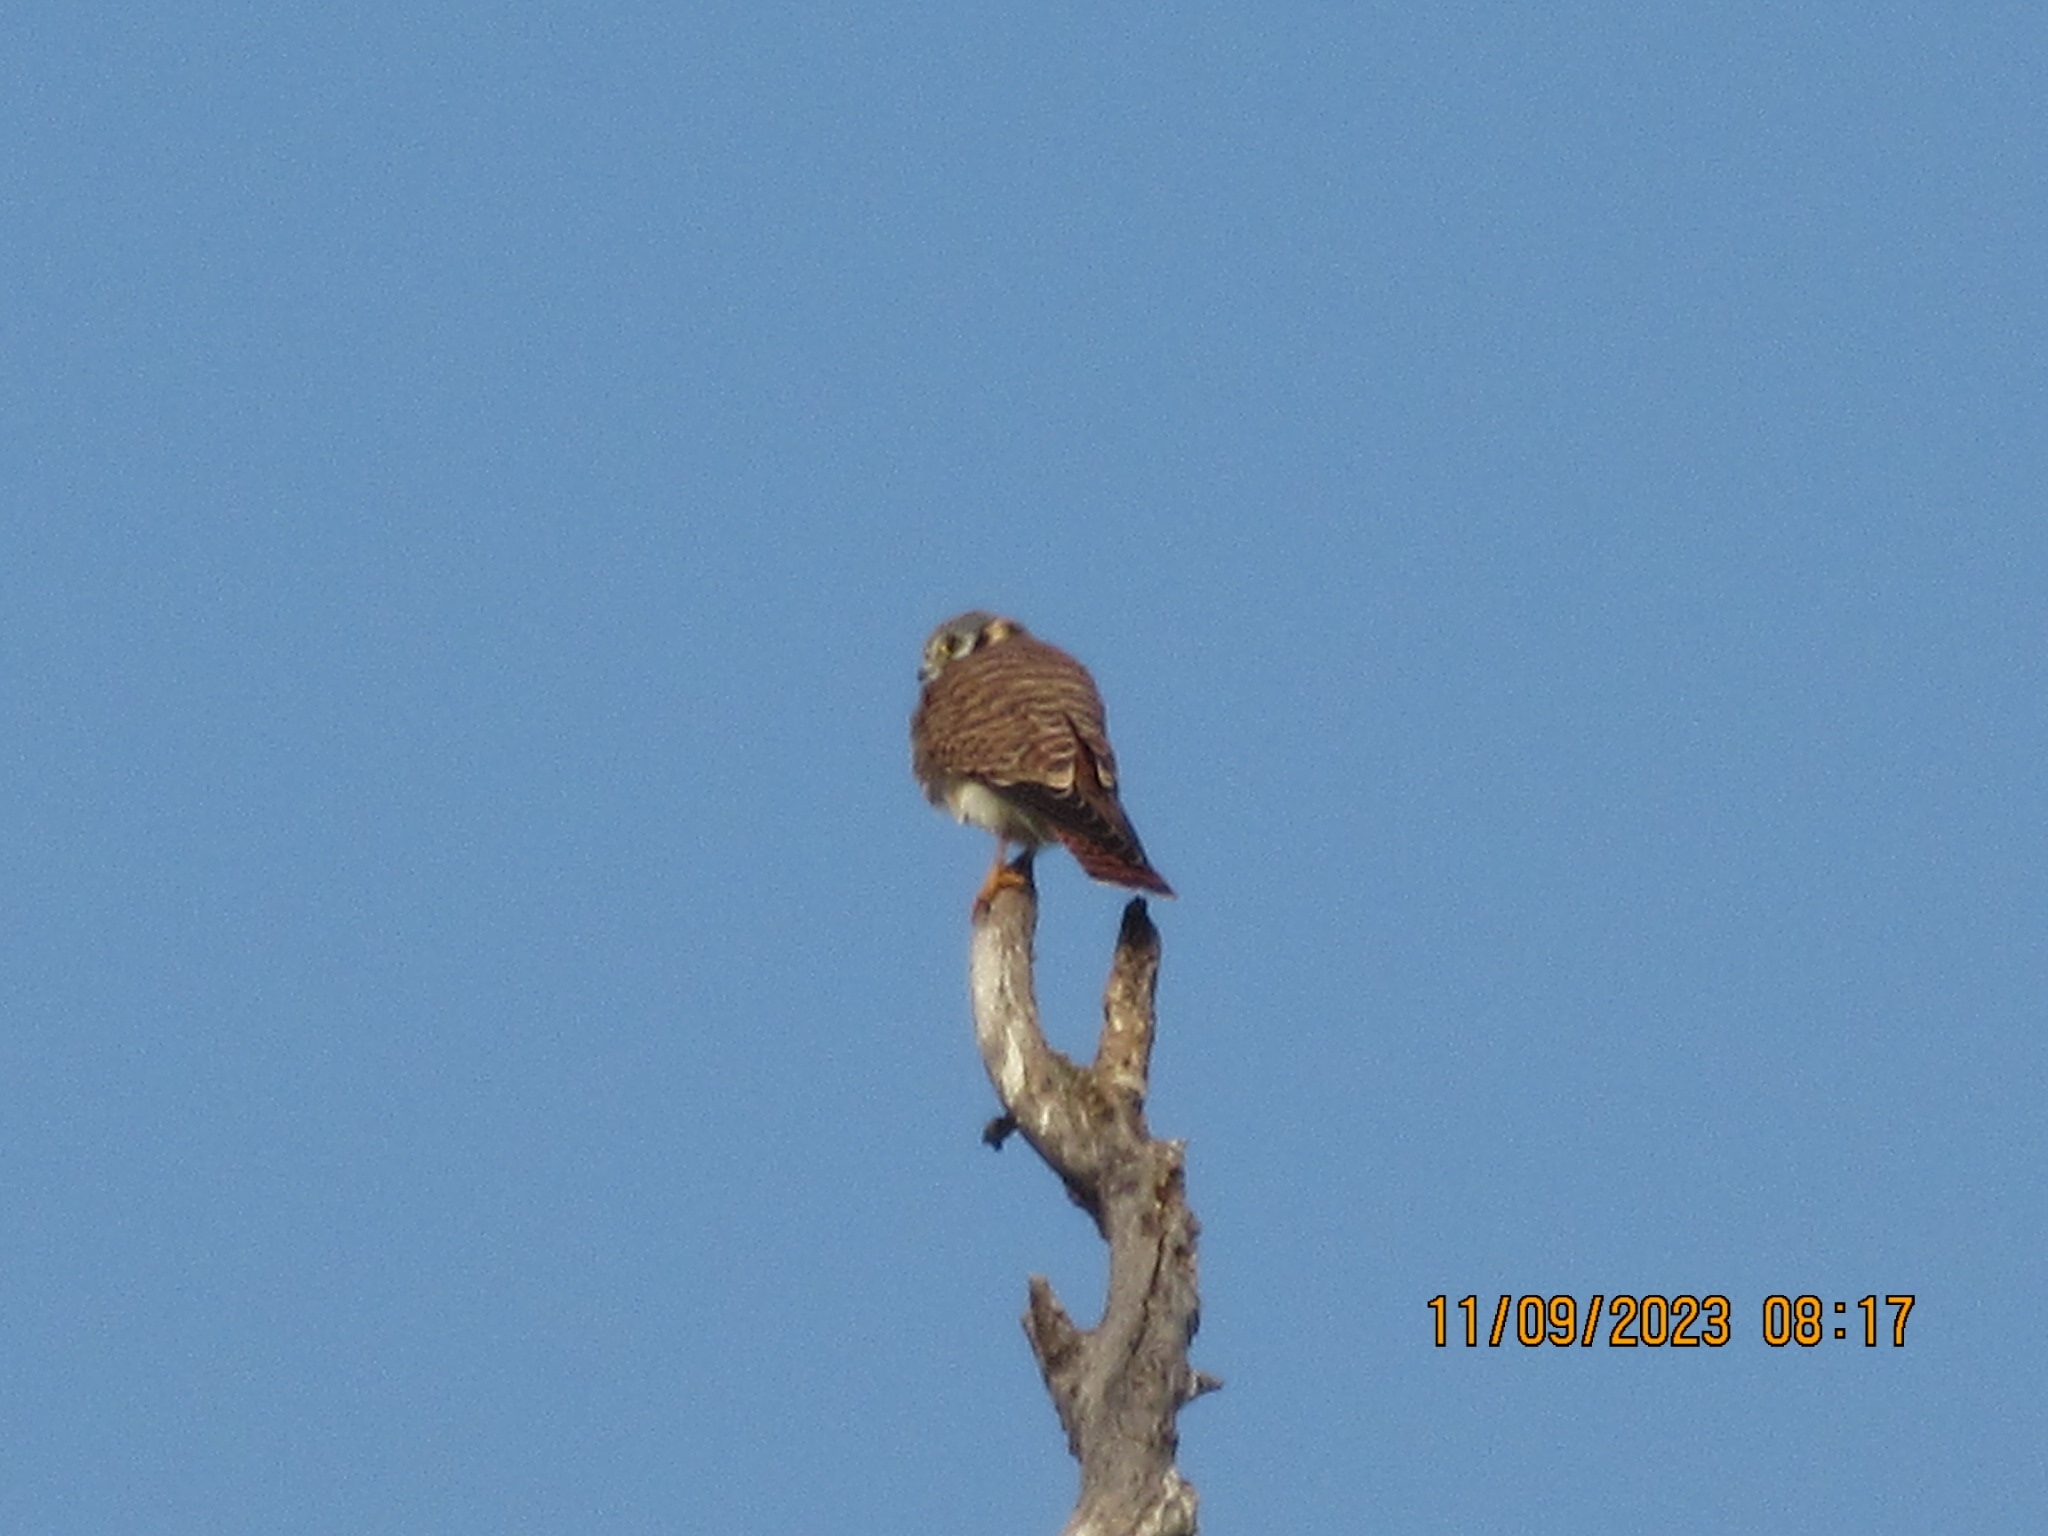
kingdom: Animalia
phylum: Chordata
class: Aves
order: Falconiformes
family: Falconidae
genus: Falco
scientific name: Falco sparverius
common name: American kestrel
